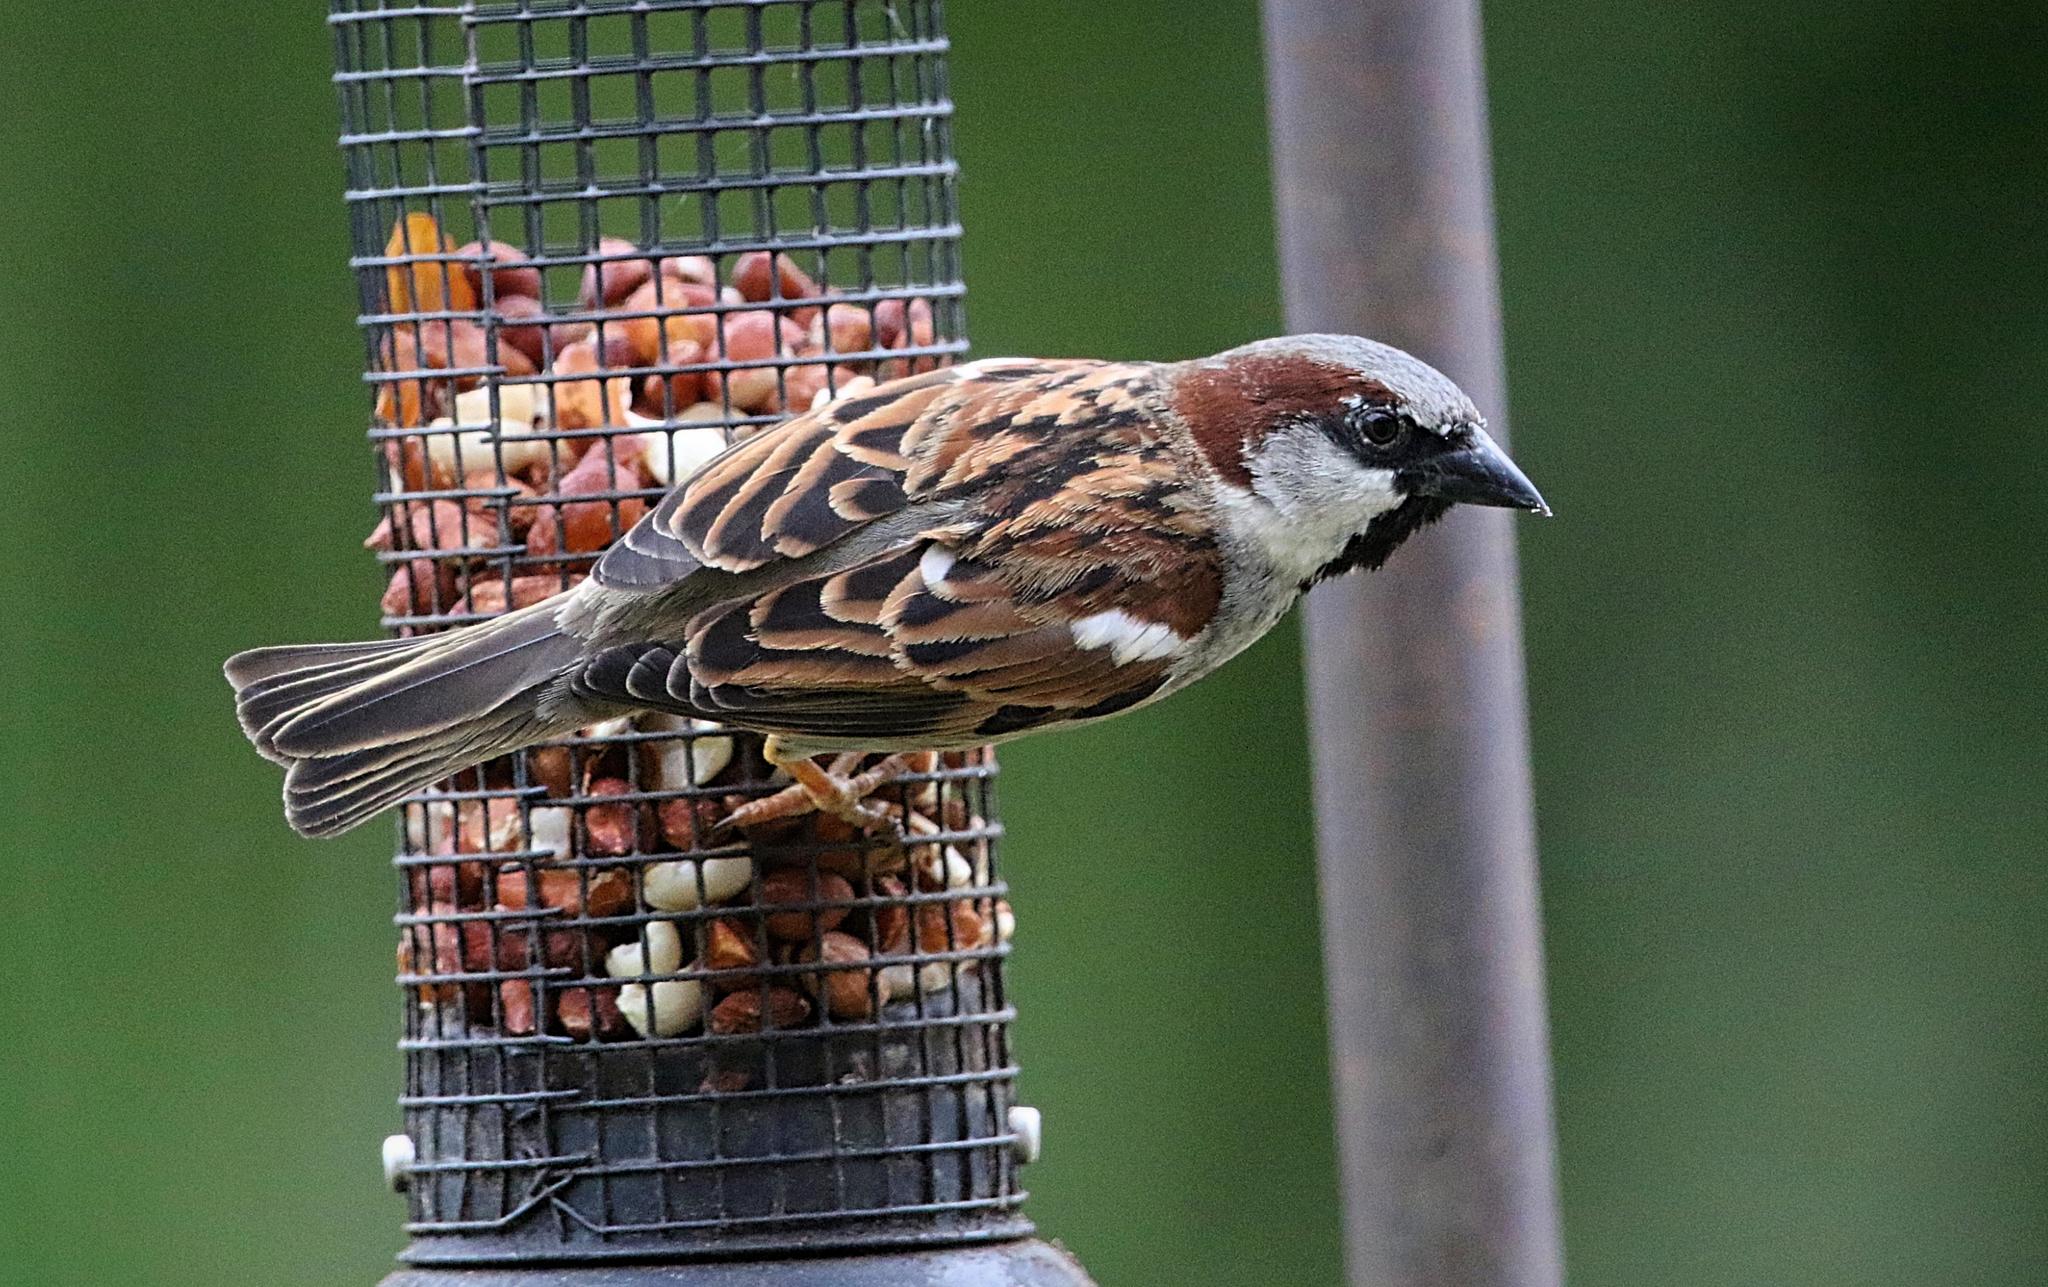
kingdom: Animalia
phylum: Chordata
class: Aves
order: Passeriformes
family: Passeridae
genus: Passer
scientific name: Passer domesticus
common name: House sparrow
